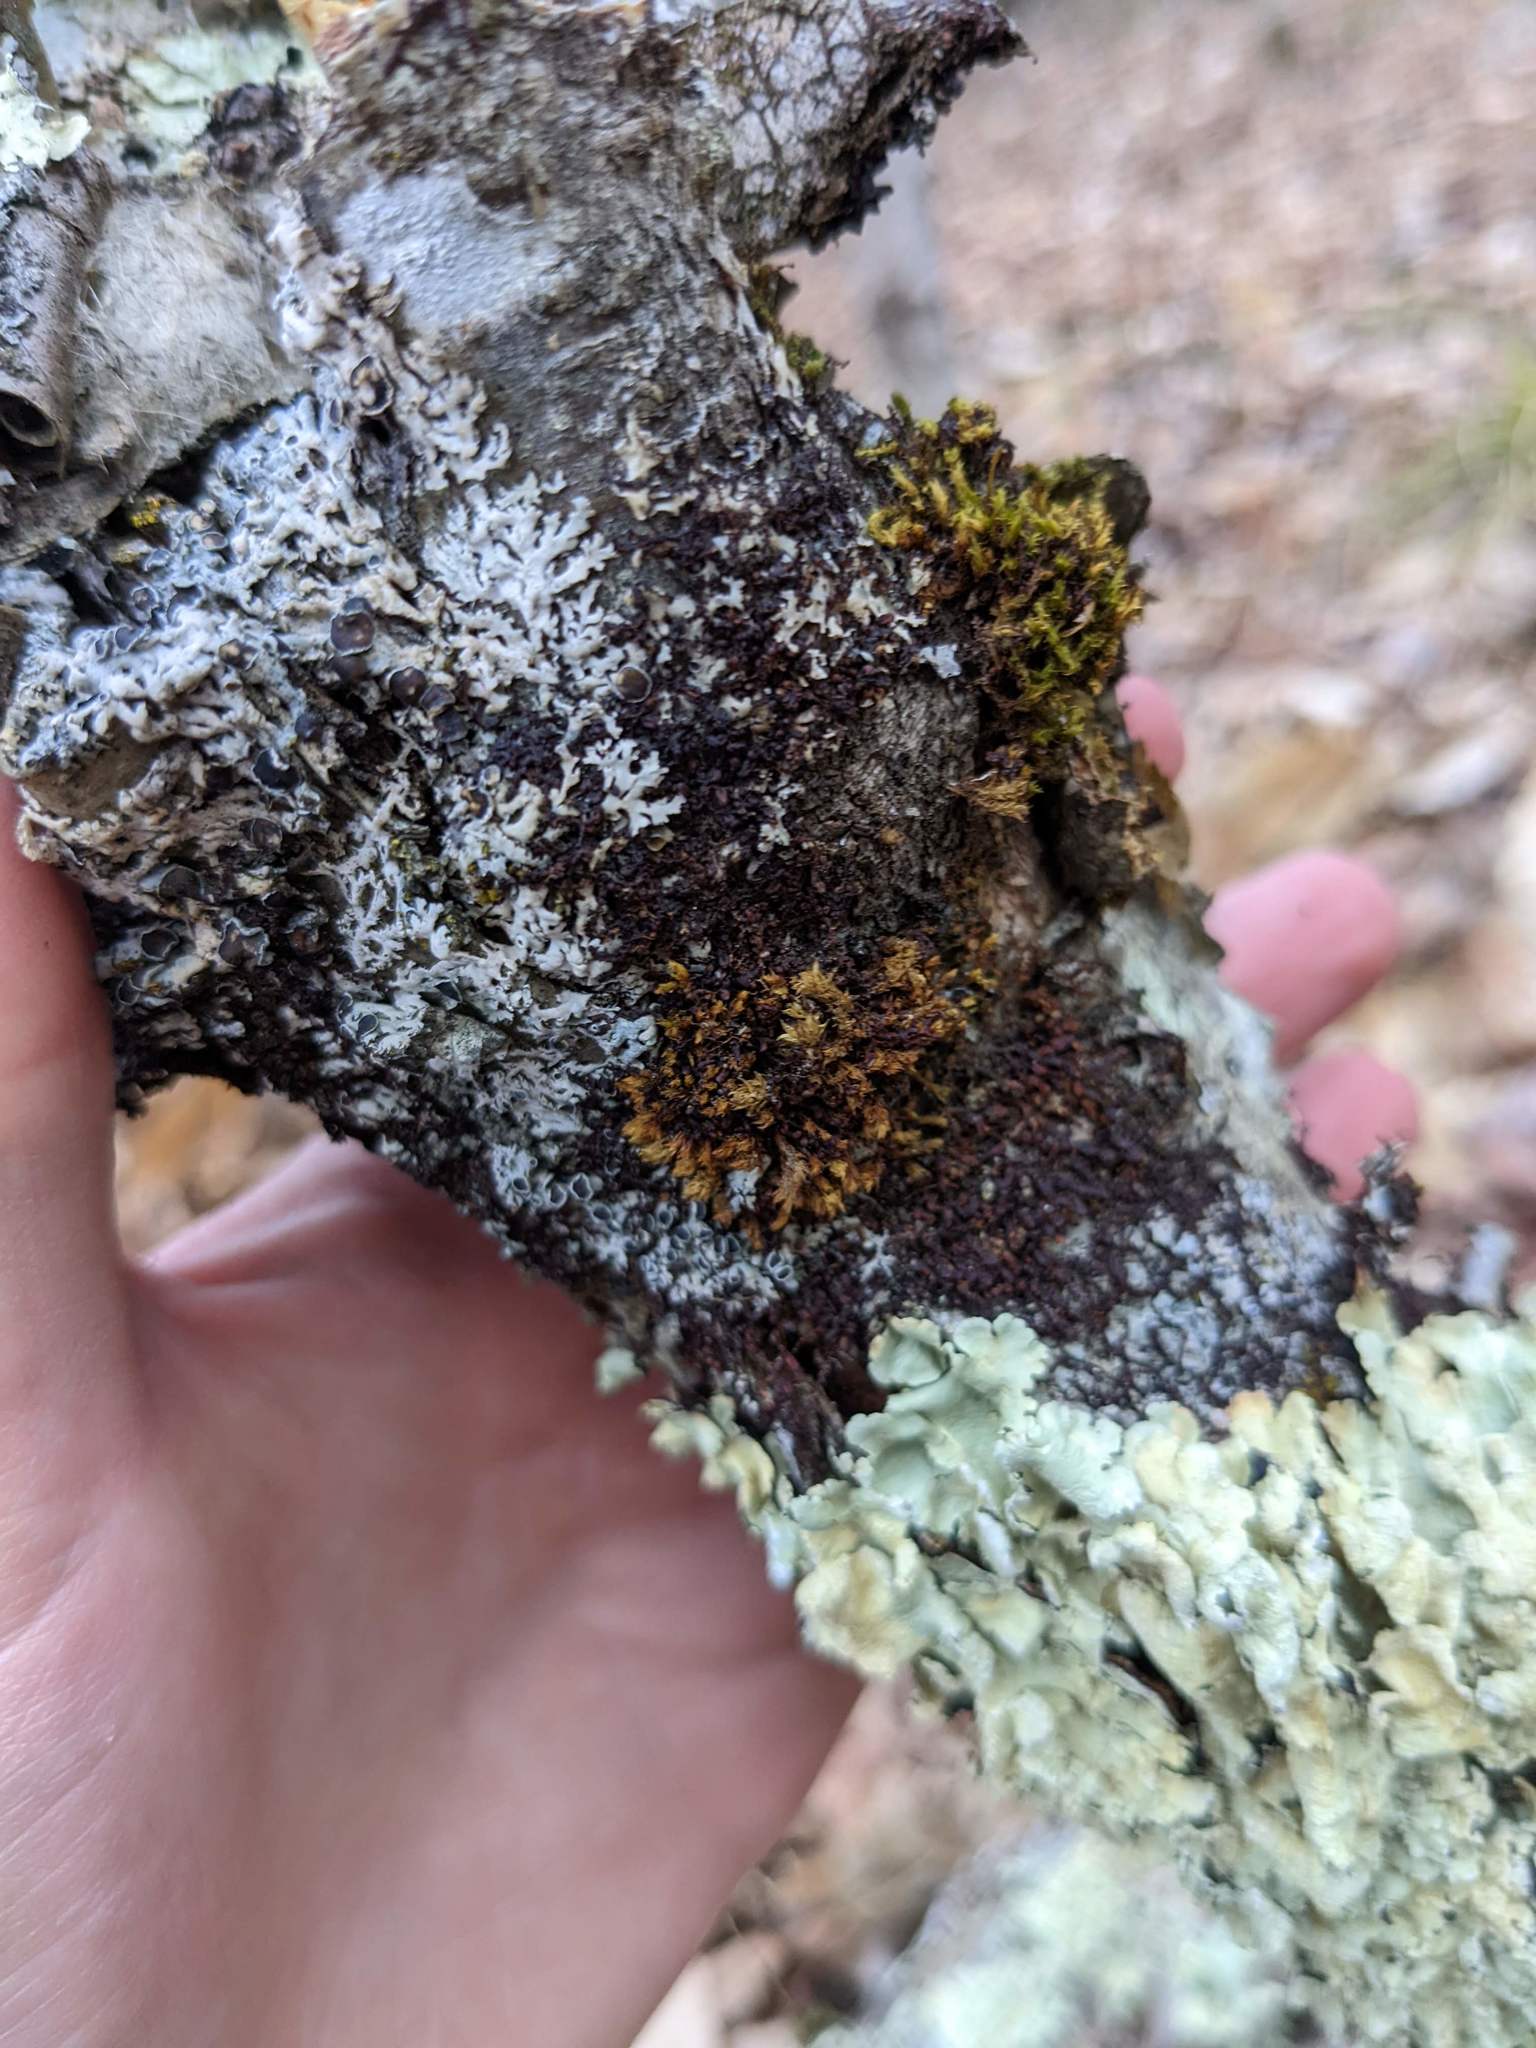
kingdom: Plantae
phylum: Bryophyta
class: Bryopsida
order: Orthotrichales
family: Orthotrichaceae
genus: Ulota
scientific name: Ulota crispa
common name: Crisped pincushion moss
